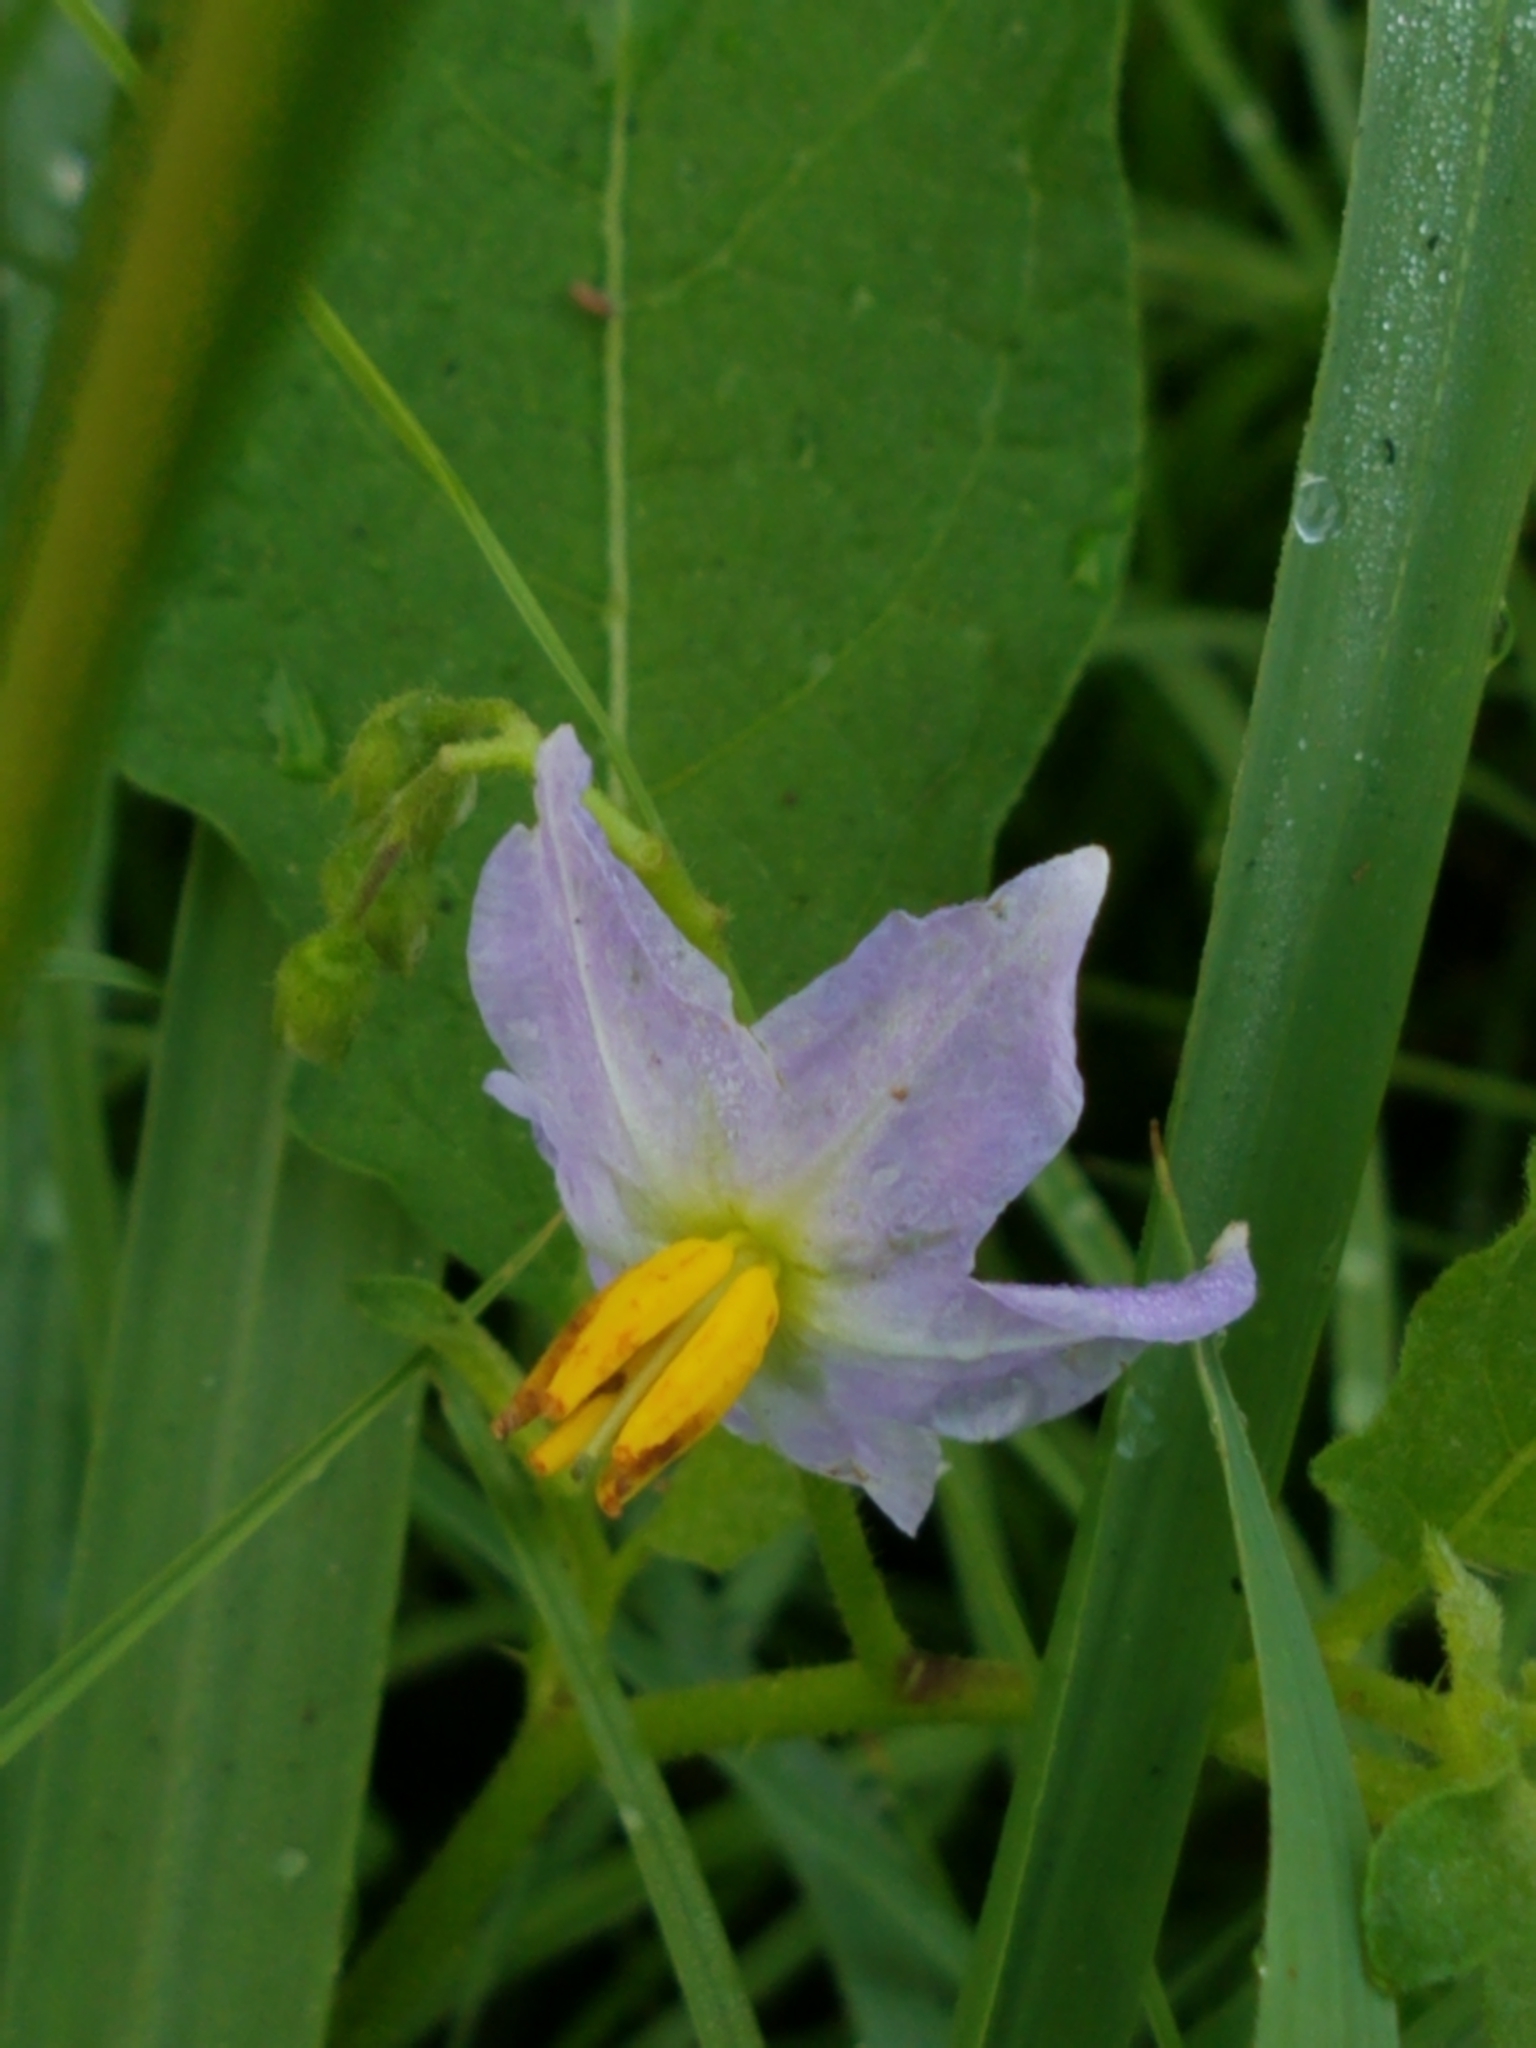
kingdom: Plantae
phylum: Tracheophyta
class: Magnoliopsida
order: Solanales
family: Solanaceae
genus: Solanum
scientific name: Solanum carolinense
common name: Horse-nettle
